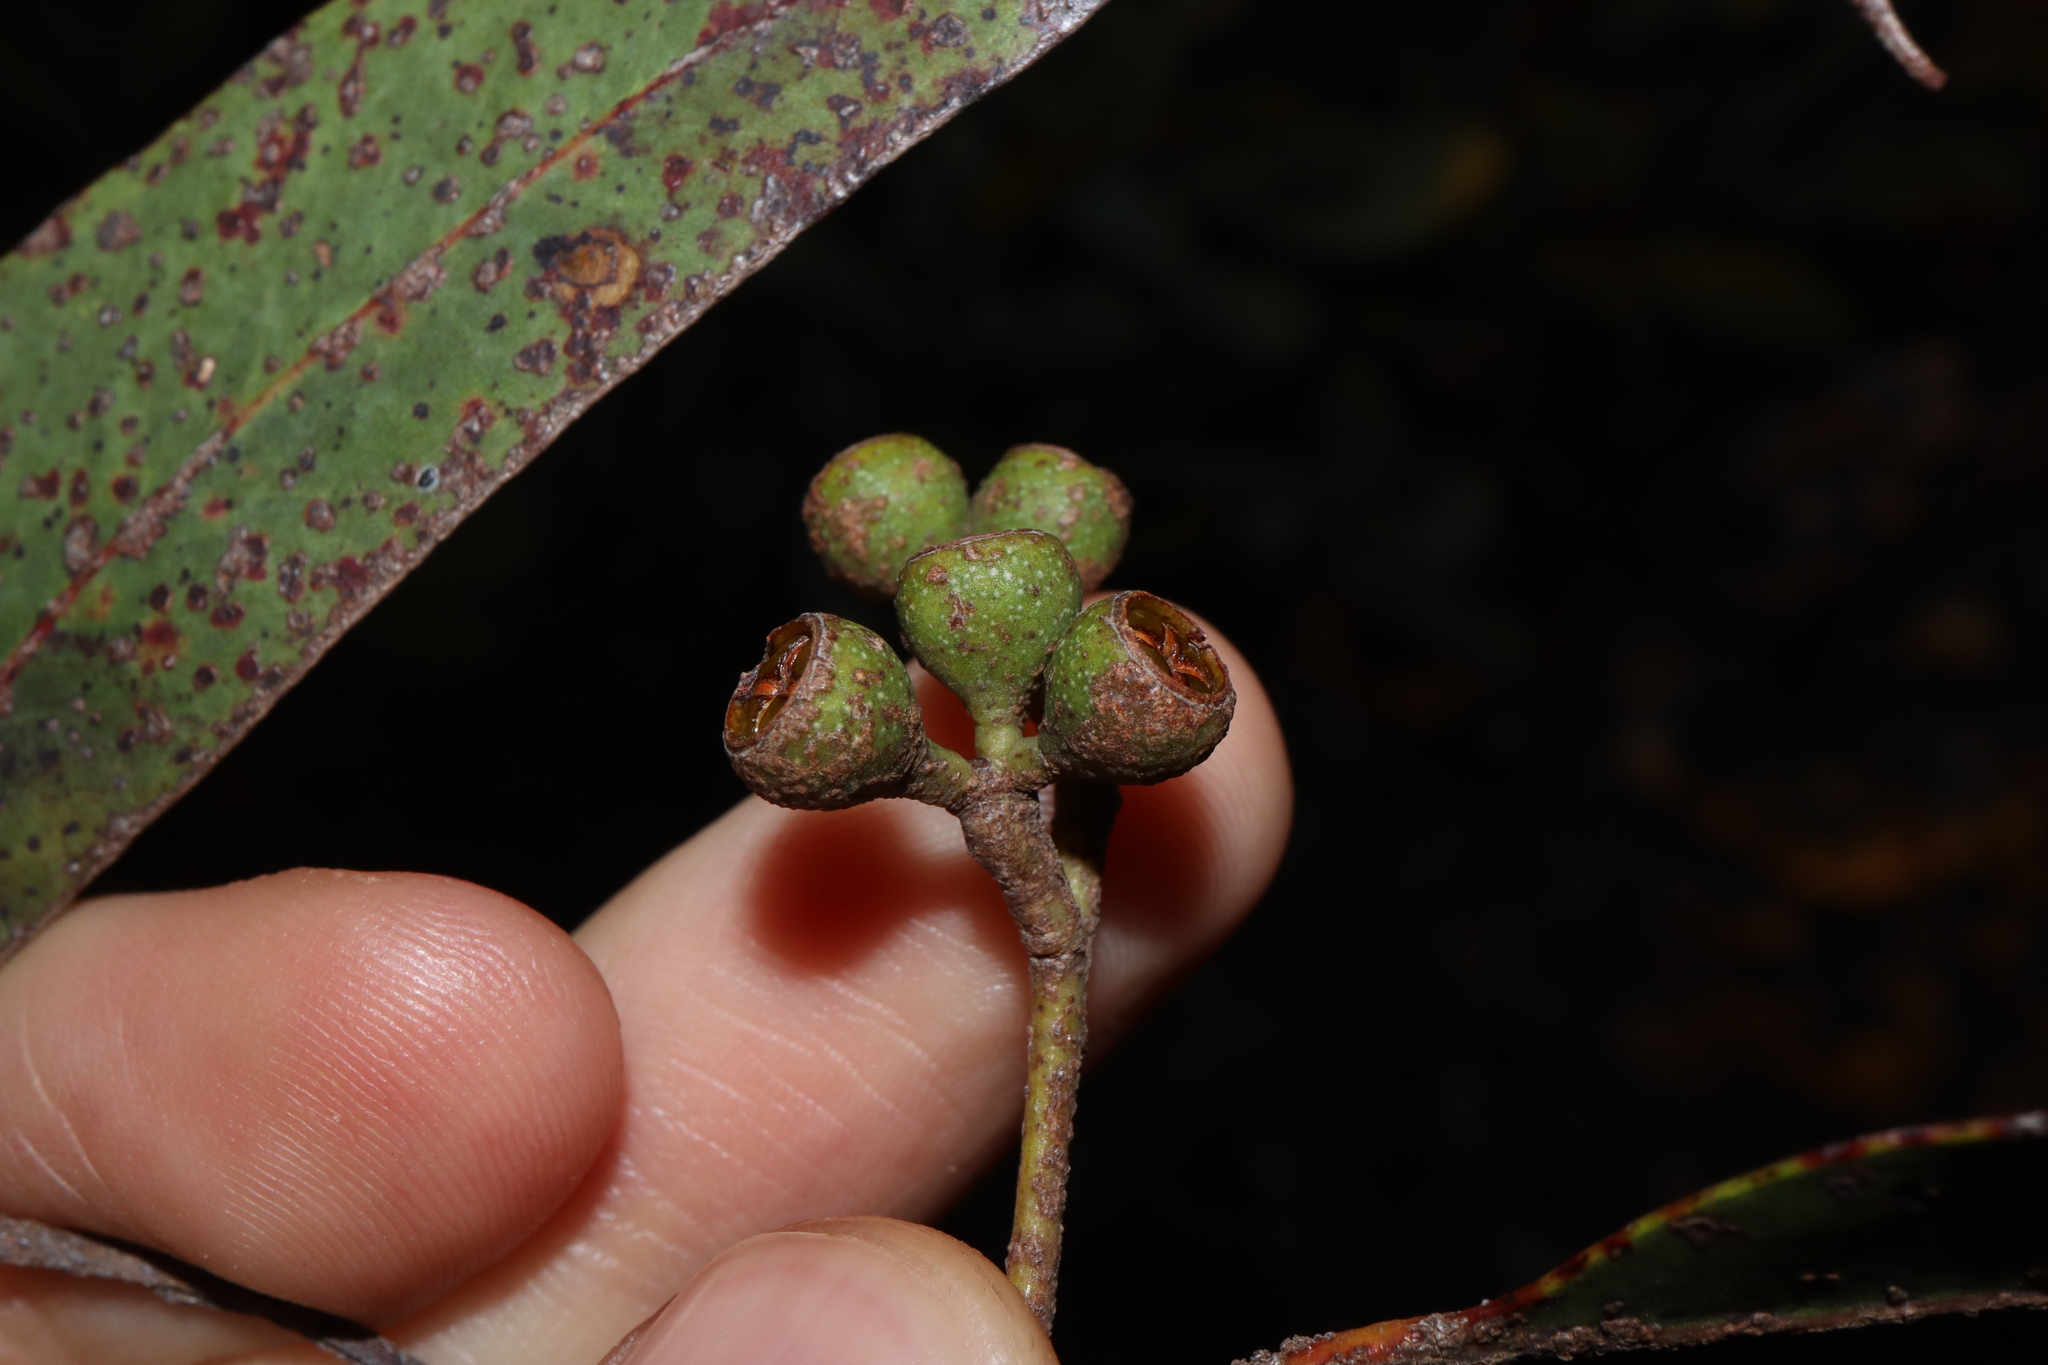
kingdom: Plantae
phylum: Tracheophyta
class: Magnoliopsida
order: Myrtales
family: Myrtaceae
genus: Eucalyptus
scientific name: Eucalyptus carnea
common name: Broad-leaved-white-mahogany
